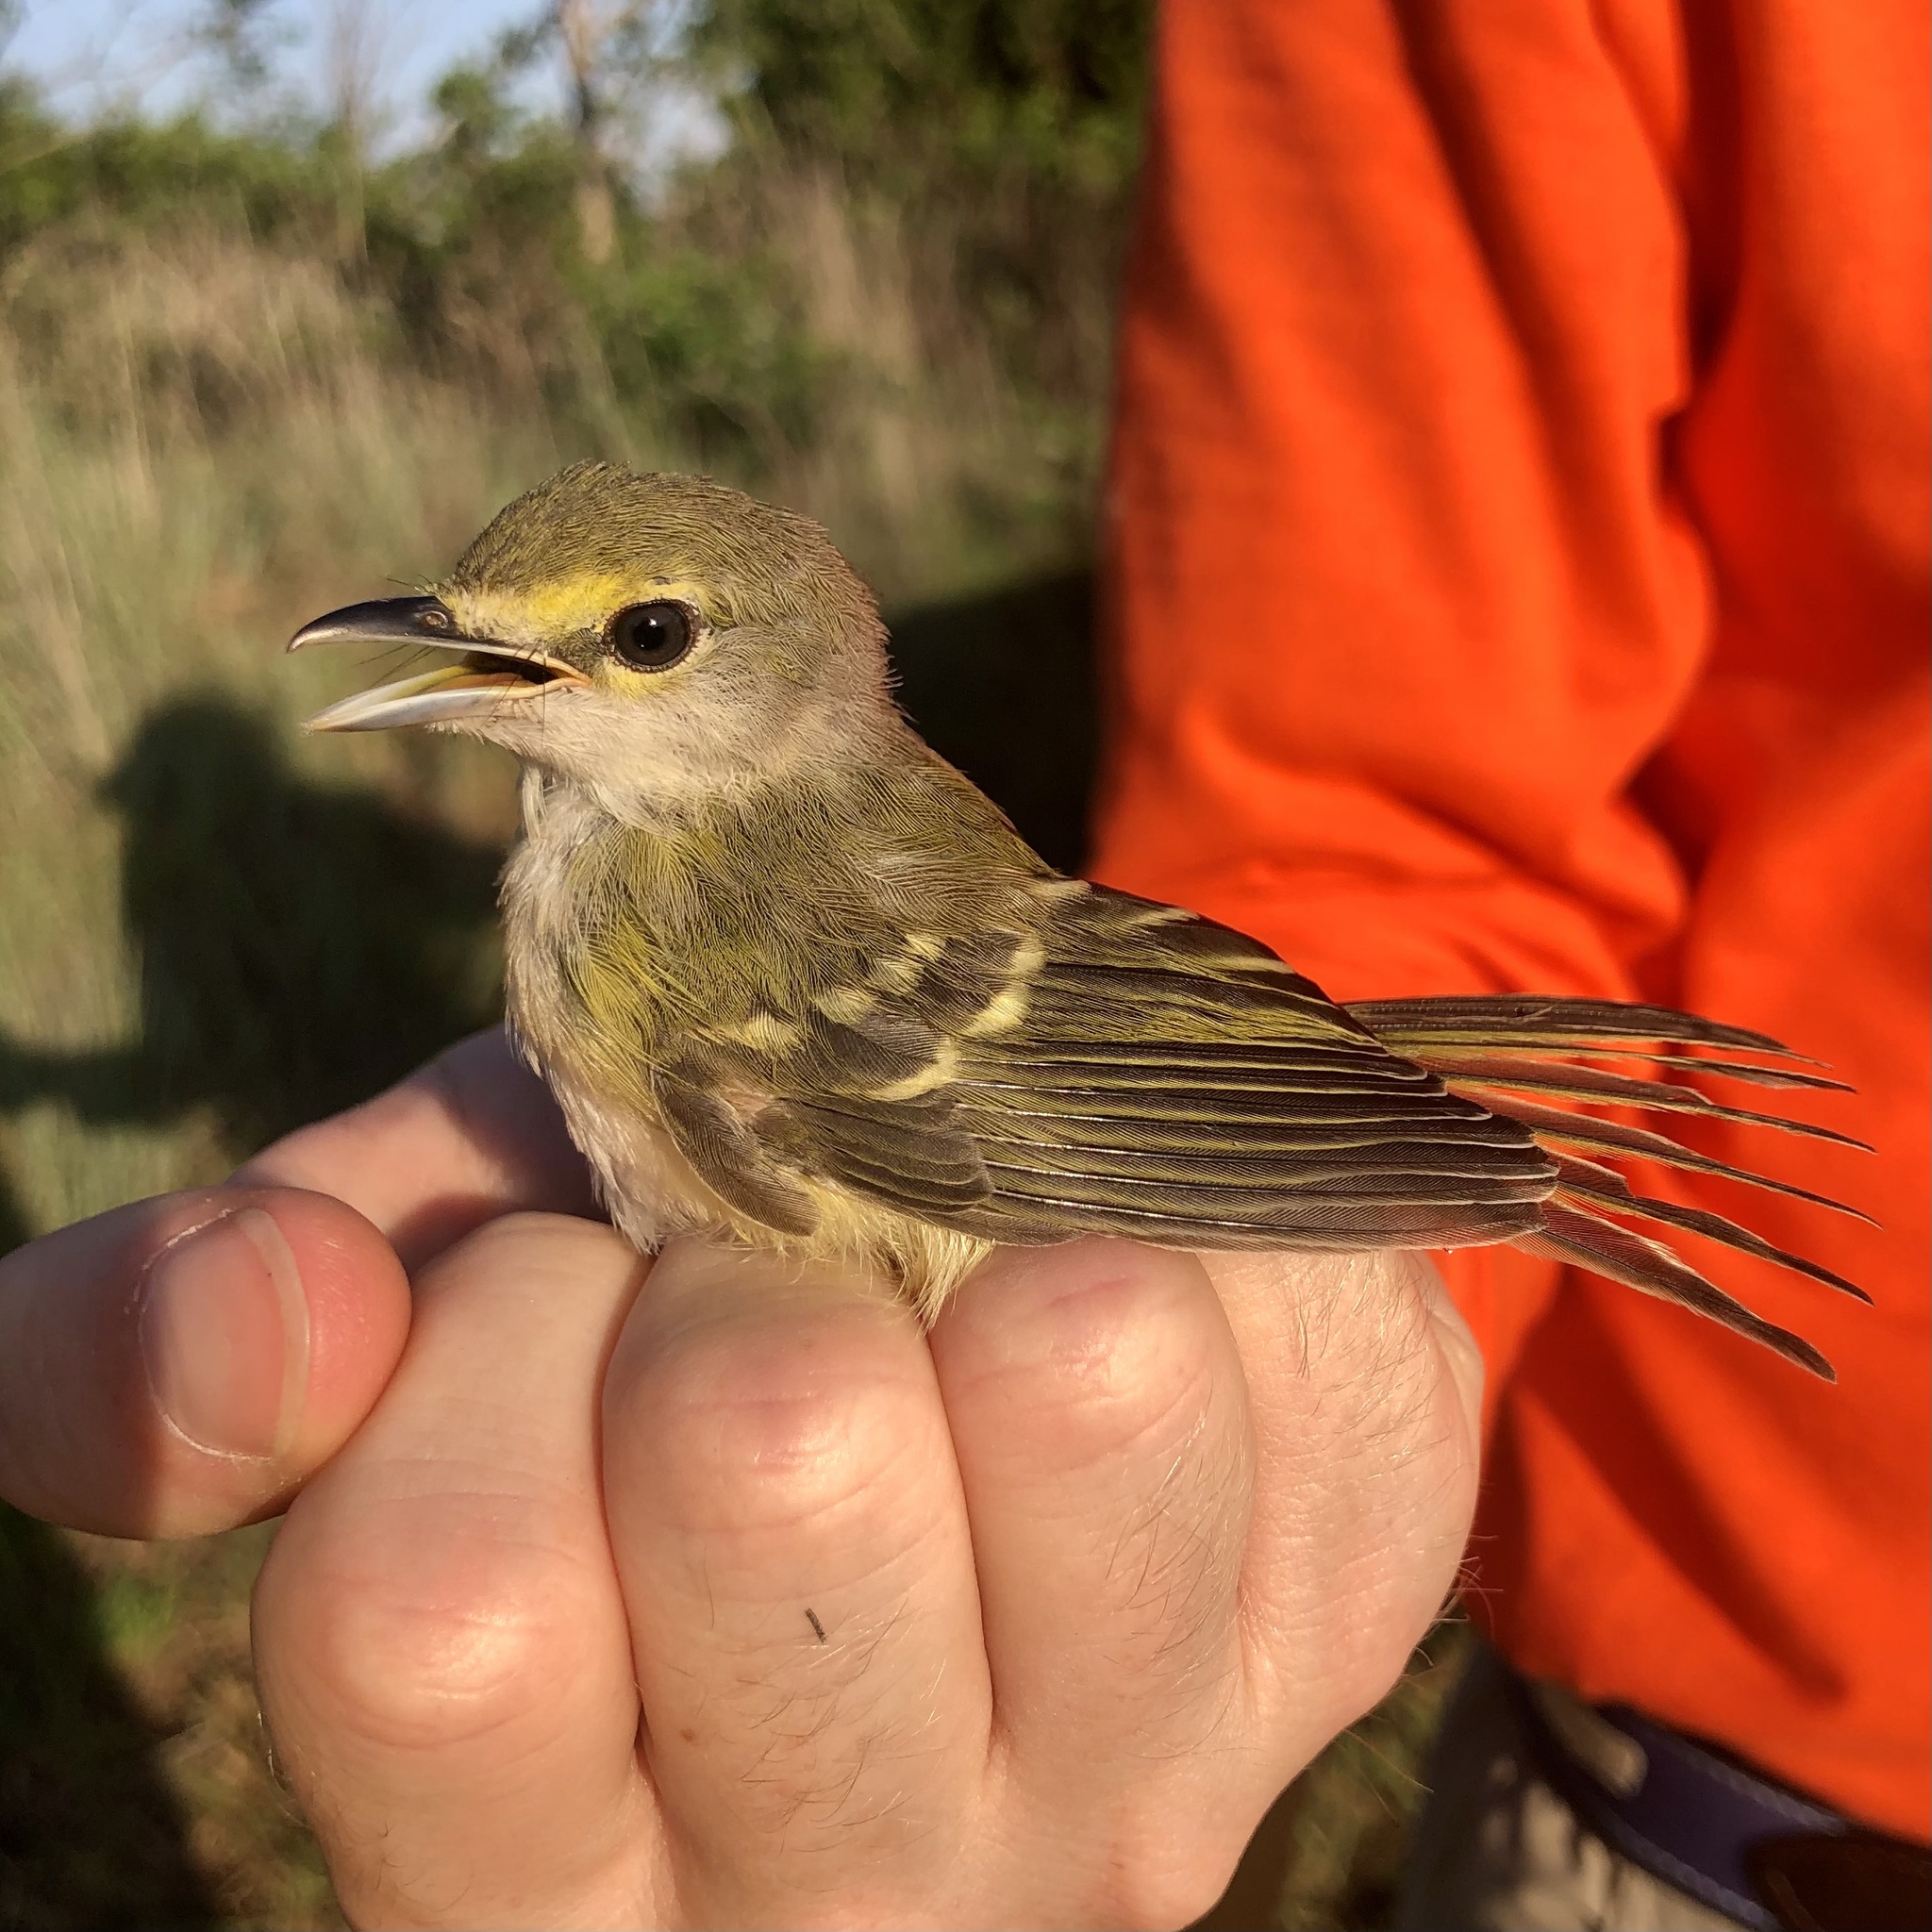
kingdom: Animalia
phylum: Chordata
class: Aves
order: Passeriformes
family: Vireonidae
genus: Vireo
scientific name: Vireo griseus
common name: White-eyed vireo
